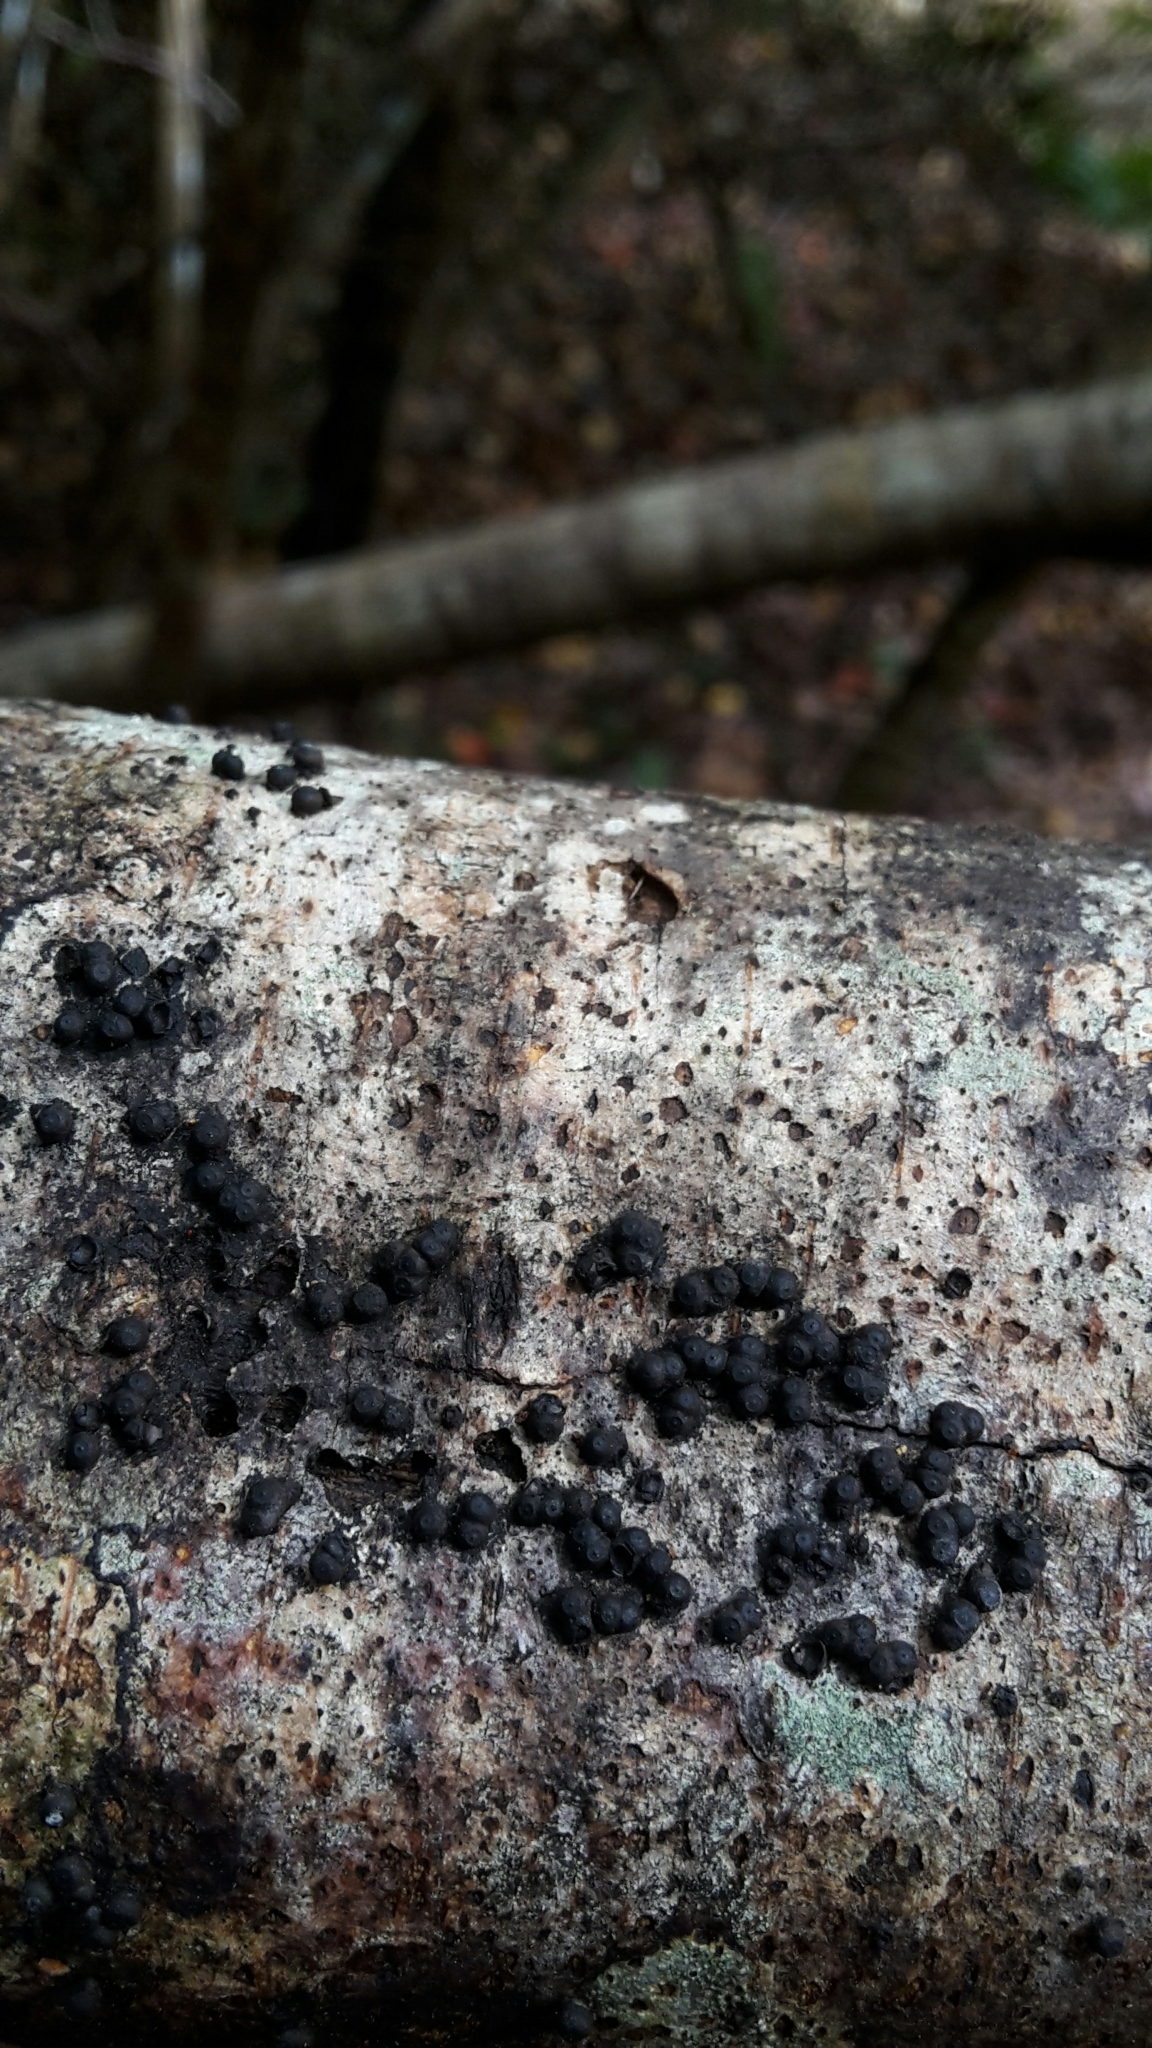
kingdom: Fungi
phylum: Ascomycota
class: Sordariomycetes
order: Xylariales
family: Hypoxylaceae
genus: Annulohypoxylon
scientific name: Annulohypoxylon bovei
